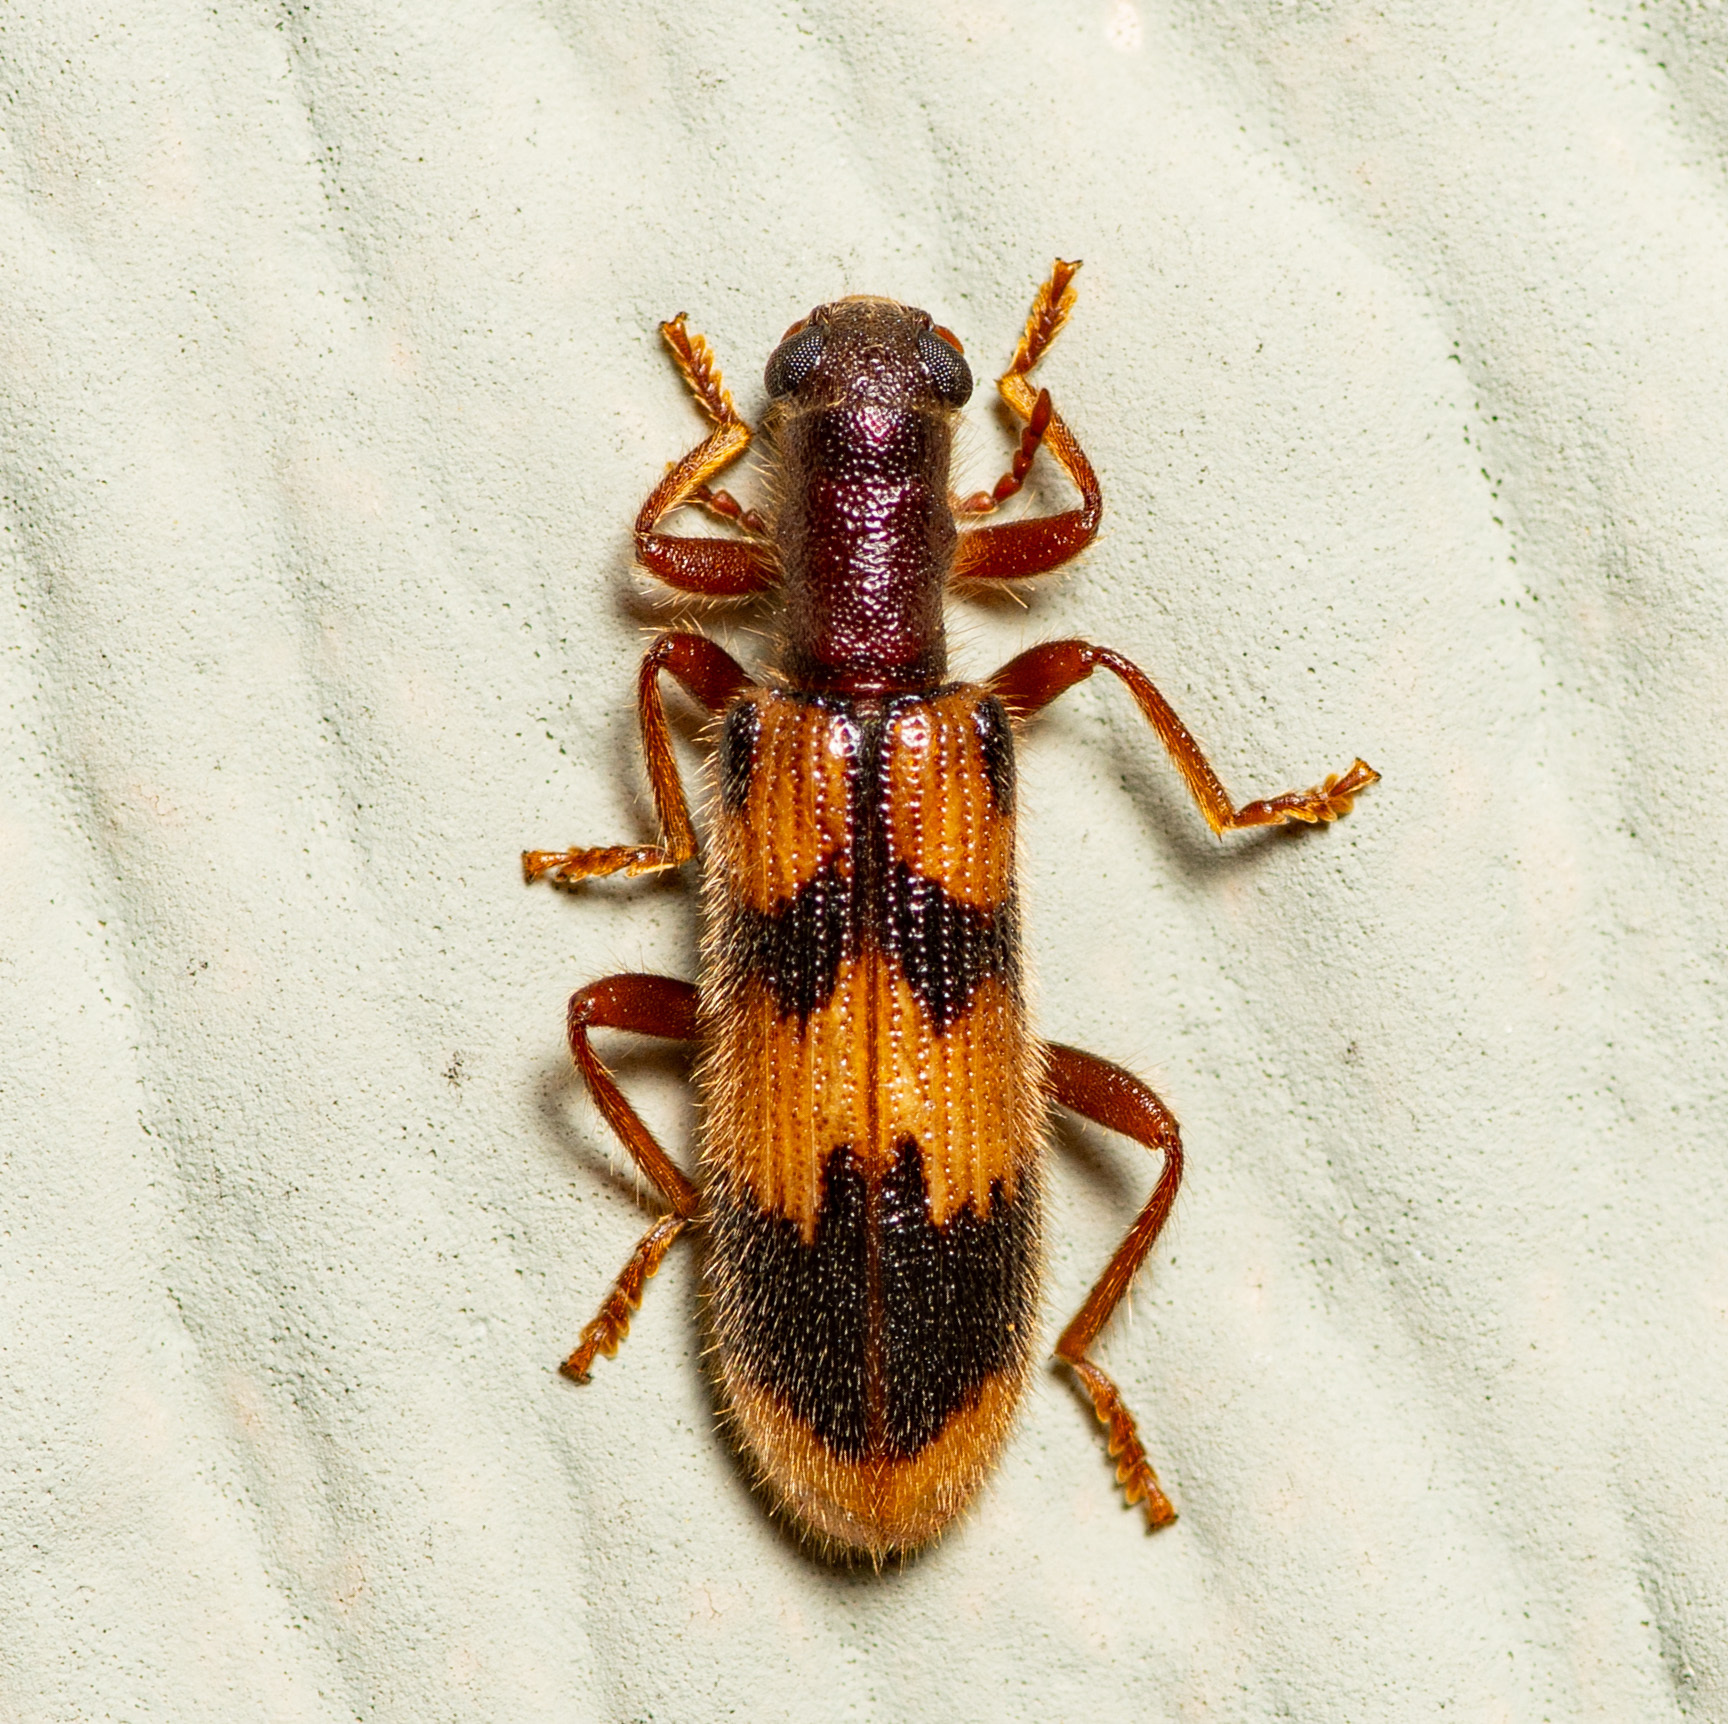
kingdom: Animalia
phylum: Arthropoda
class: Insecta
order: Coleoptera
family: Cleridae
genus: Cymatodera
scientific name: Cymatodera sirpata
